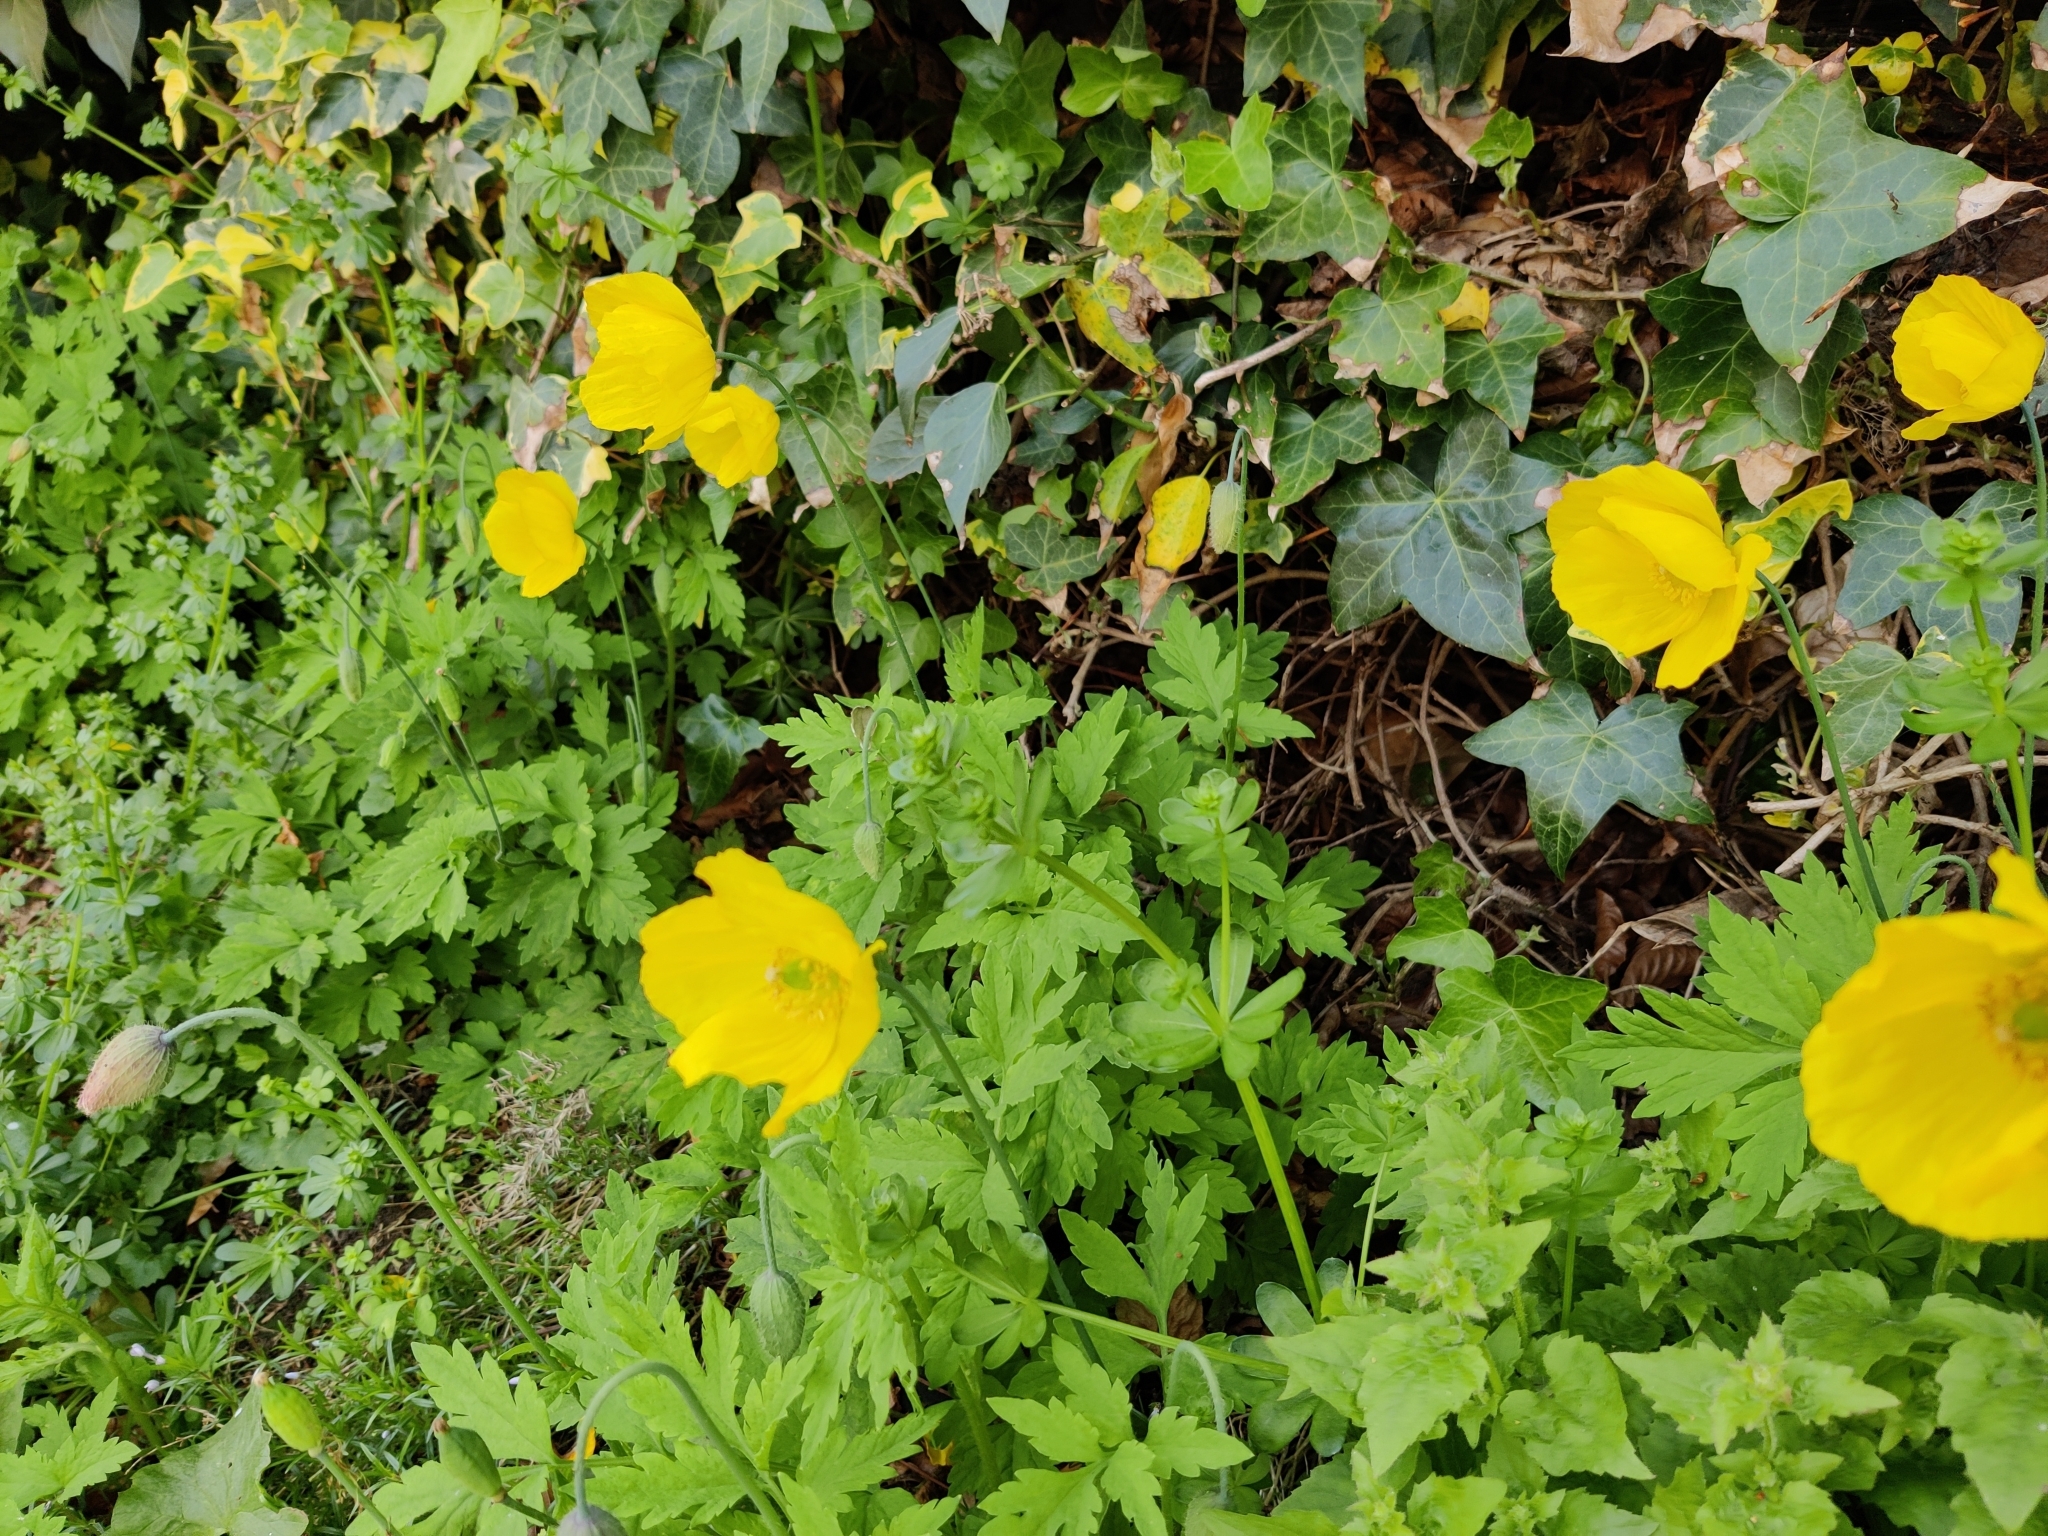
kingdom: Plantae
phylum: Tracheophyta
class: Magnoliopsida
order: Ranunculales
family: Papaveraceae
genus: Papaver
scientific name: Papaver cambricum
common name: Poppy
